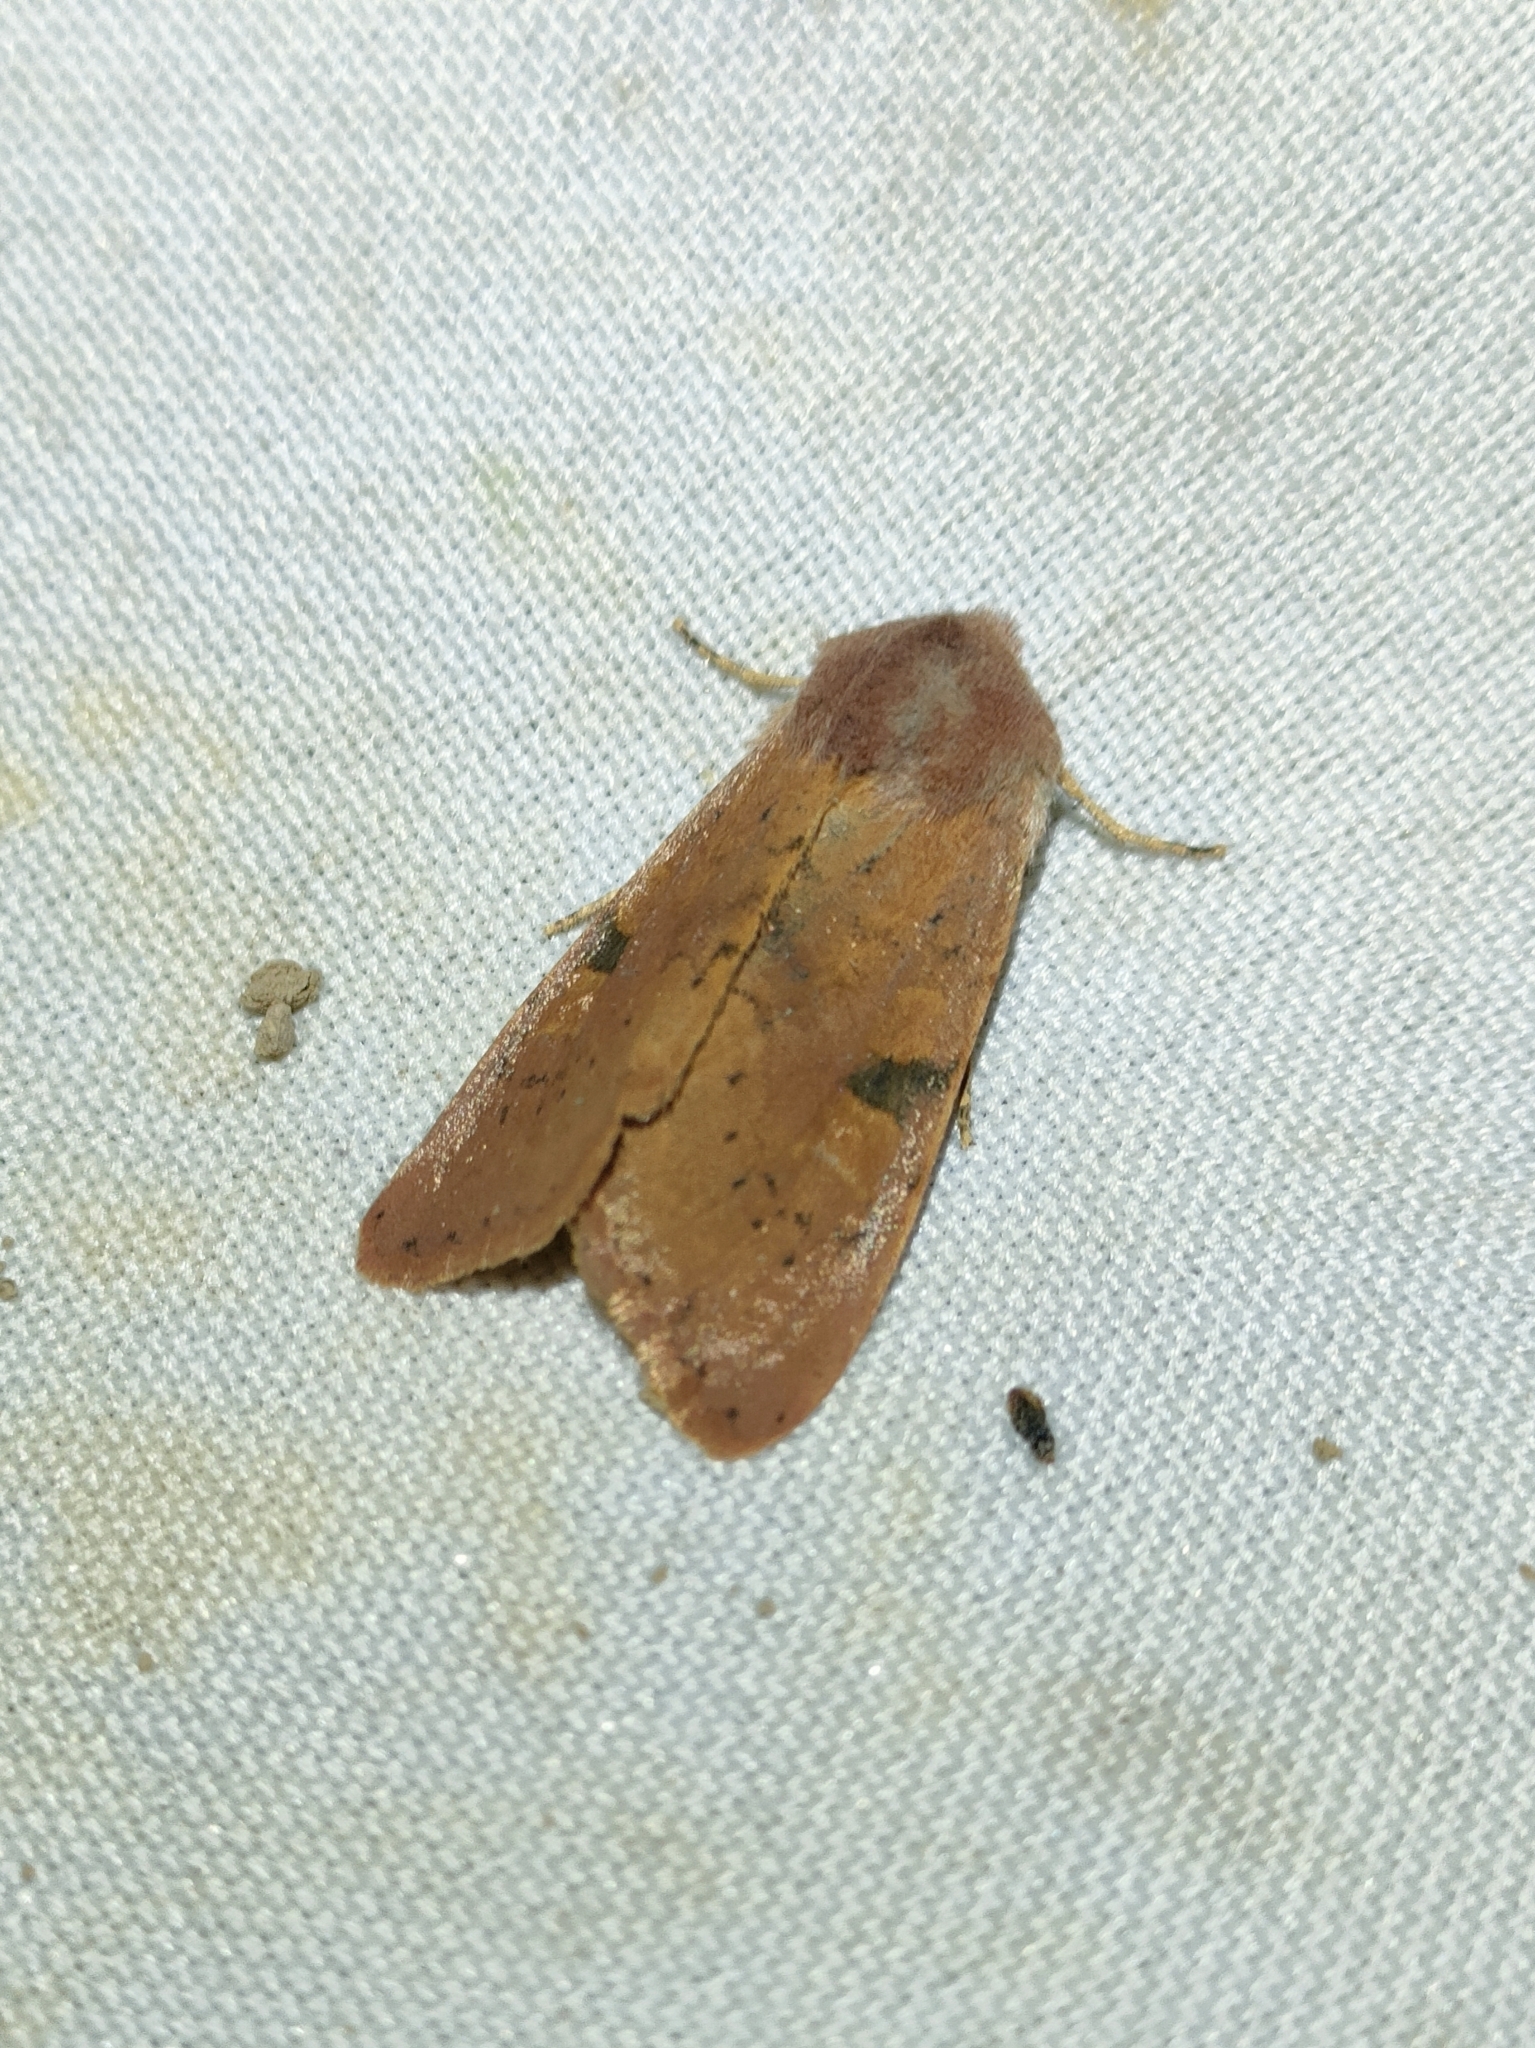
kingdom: Animalia
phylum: Arthropoda
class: Insecta
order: Lepidoptera
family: Noctuidae
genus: Ammopolia
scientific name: Ammopolia witzenmanni
